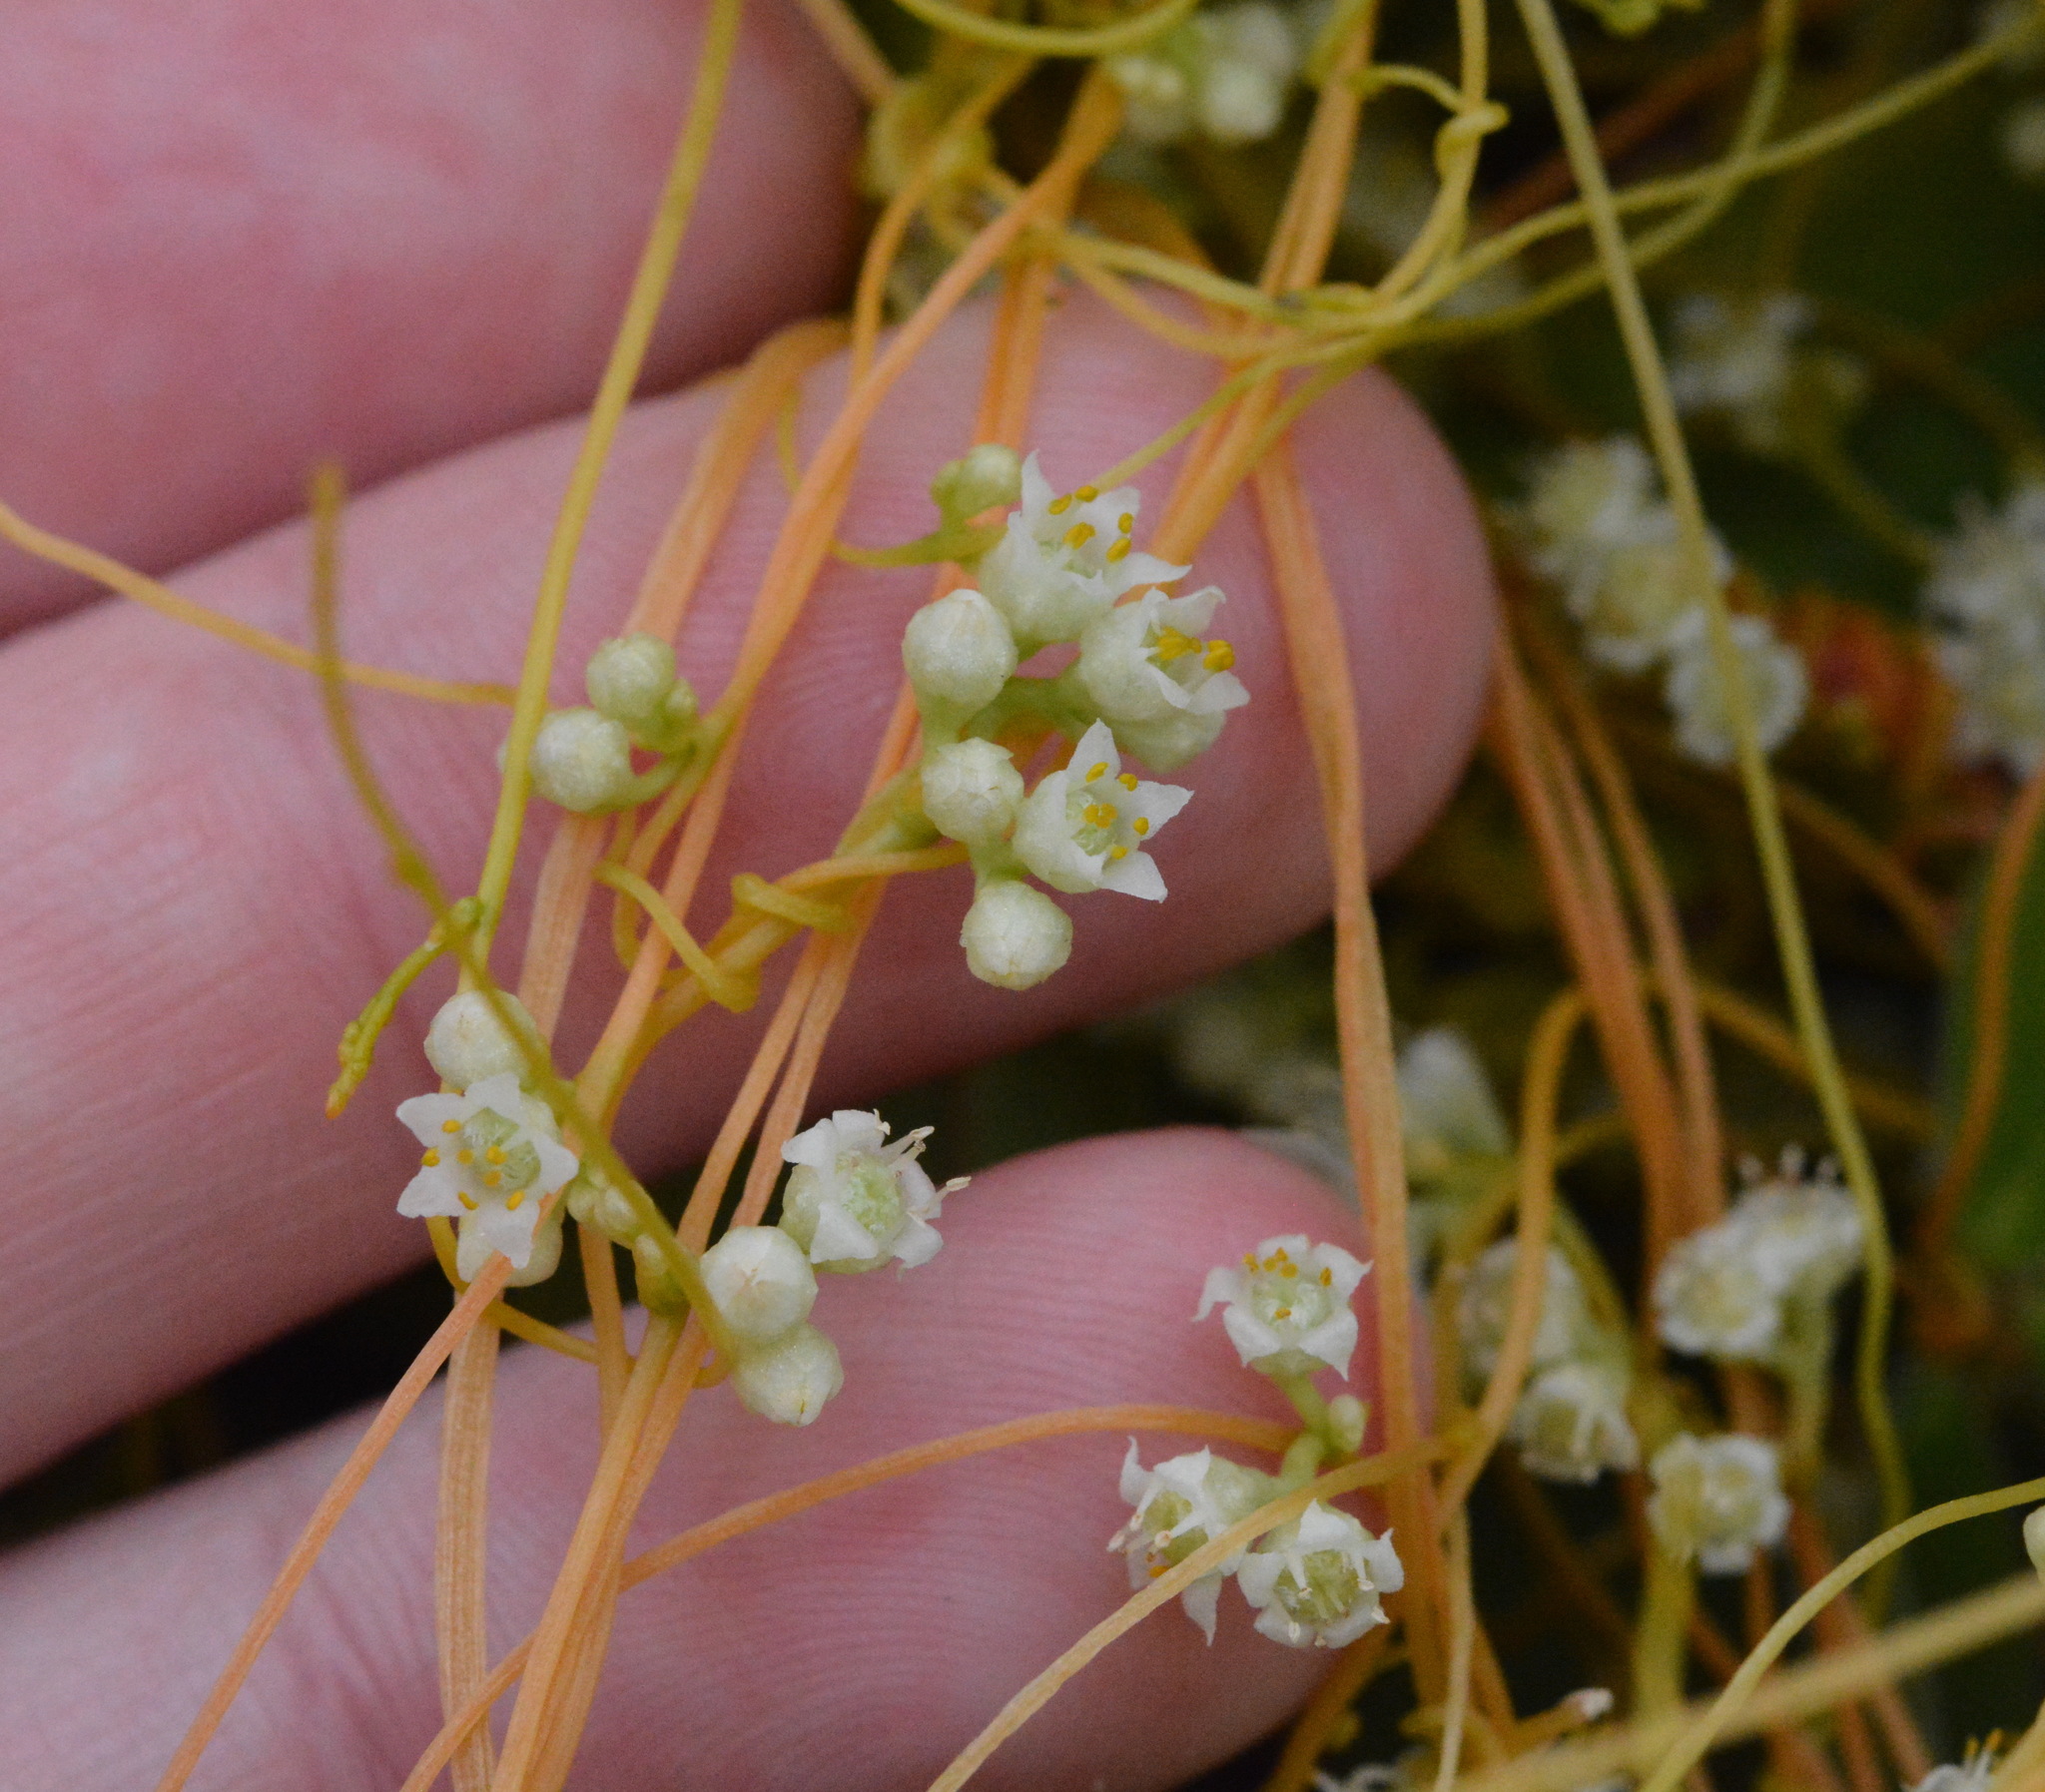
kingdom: Plantae
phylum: Tracheophyta
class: Magnoliopsida
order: Solanales
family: Convolvulaceae
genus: Cuscuta
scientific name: Cuscuta campestris
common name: Yellow dodder
